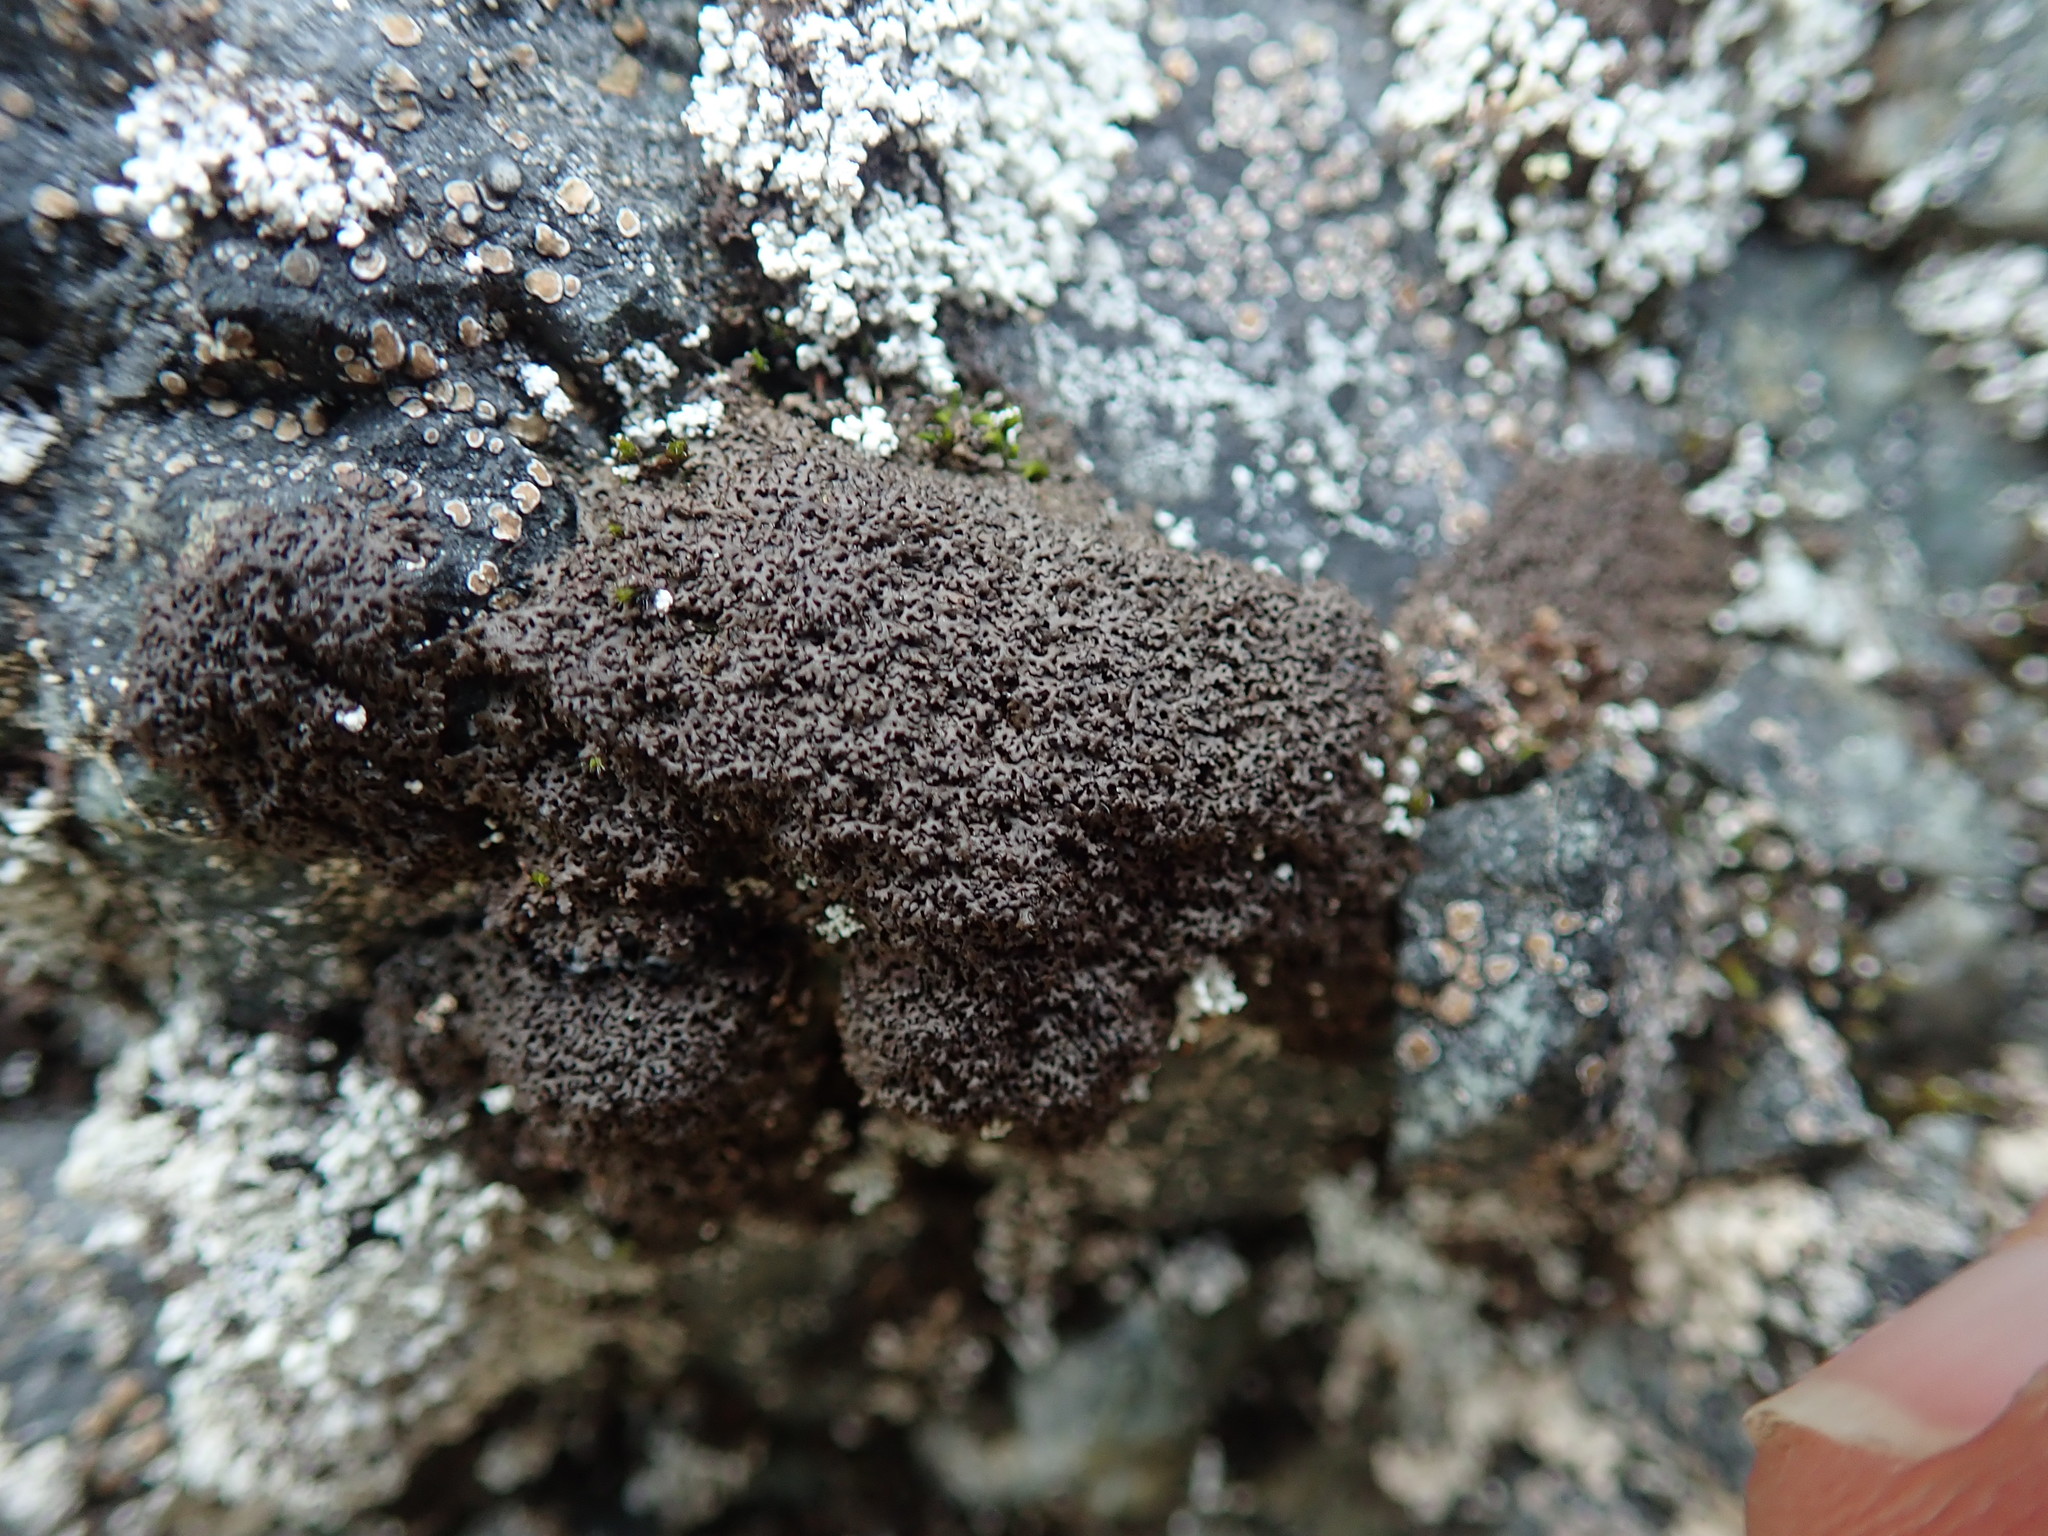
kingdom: Fungi
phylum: Ascomycota
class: Lecanoromycetes
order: Lecanorales
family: Parmeliaceae
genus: Montanelia
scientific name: Montanelia panniformis
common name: Shingled camouflage lichen
